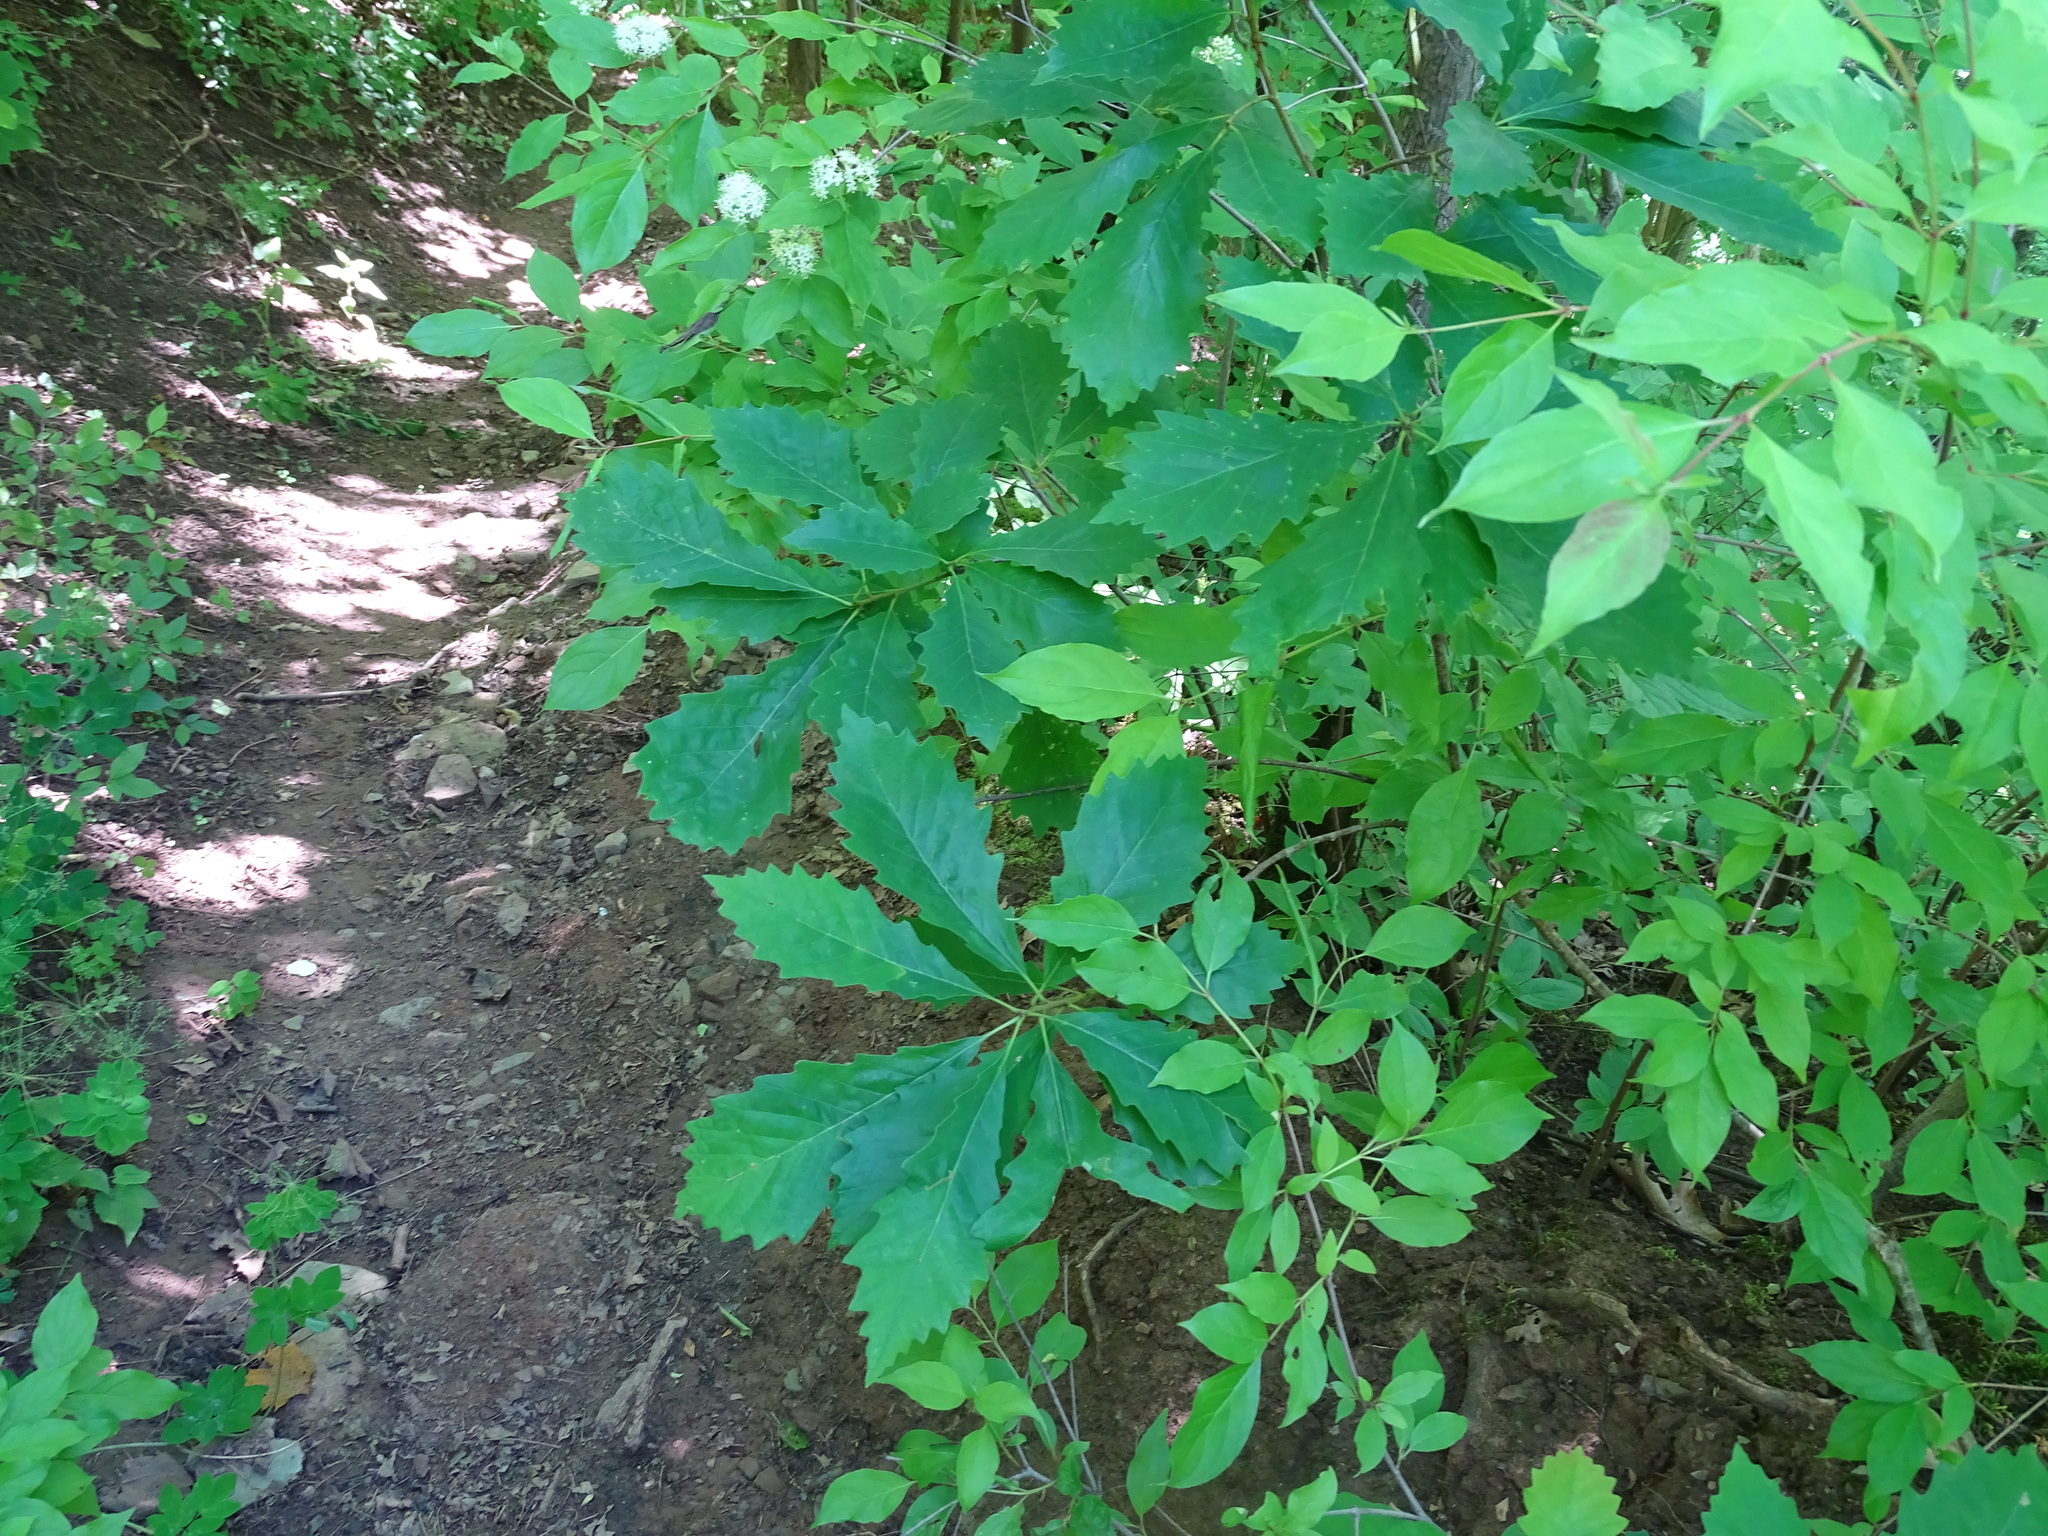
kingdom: Plantae
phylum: Tracheophyta
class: Magnoliopsida
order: Fagales
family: Fagaceae
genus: Quercus
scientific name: Quercus muehlenbergii
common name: Chinkapin oak
